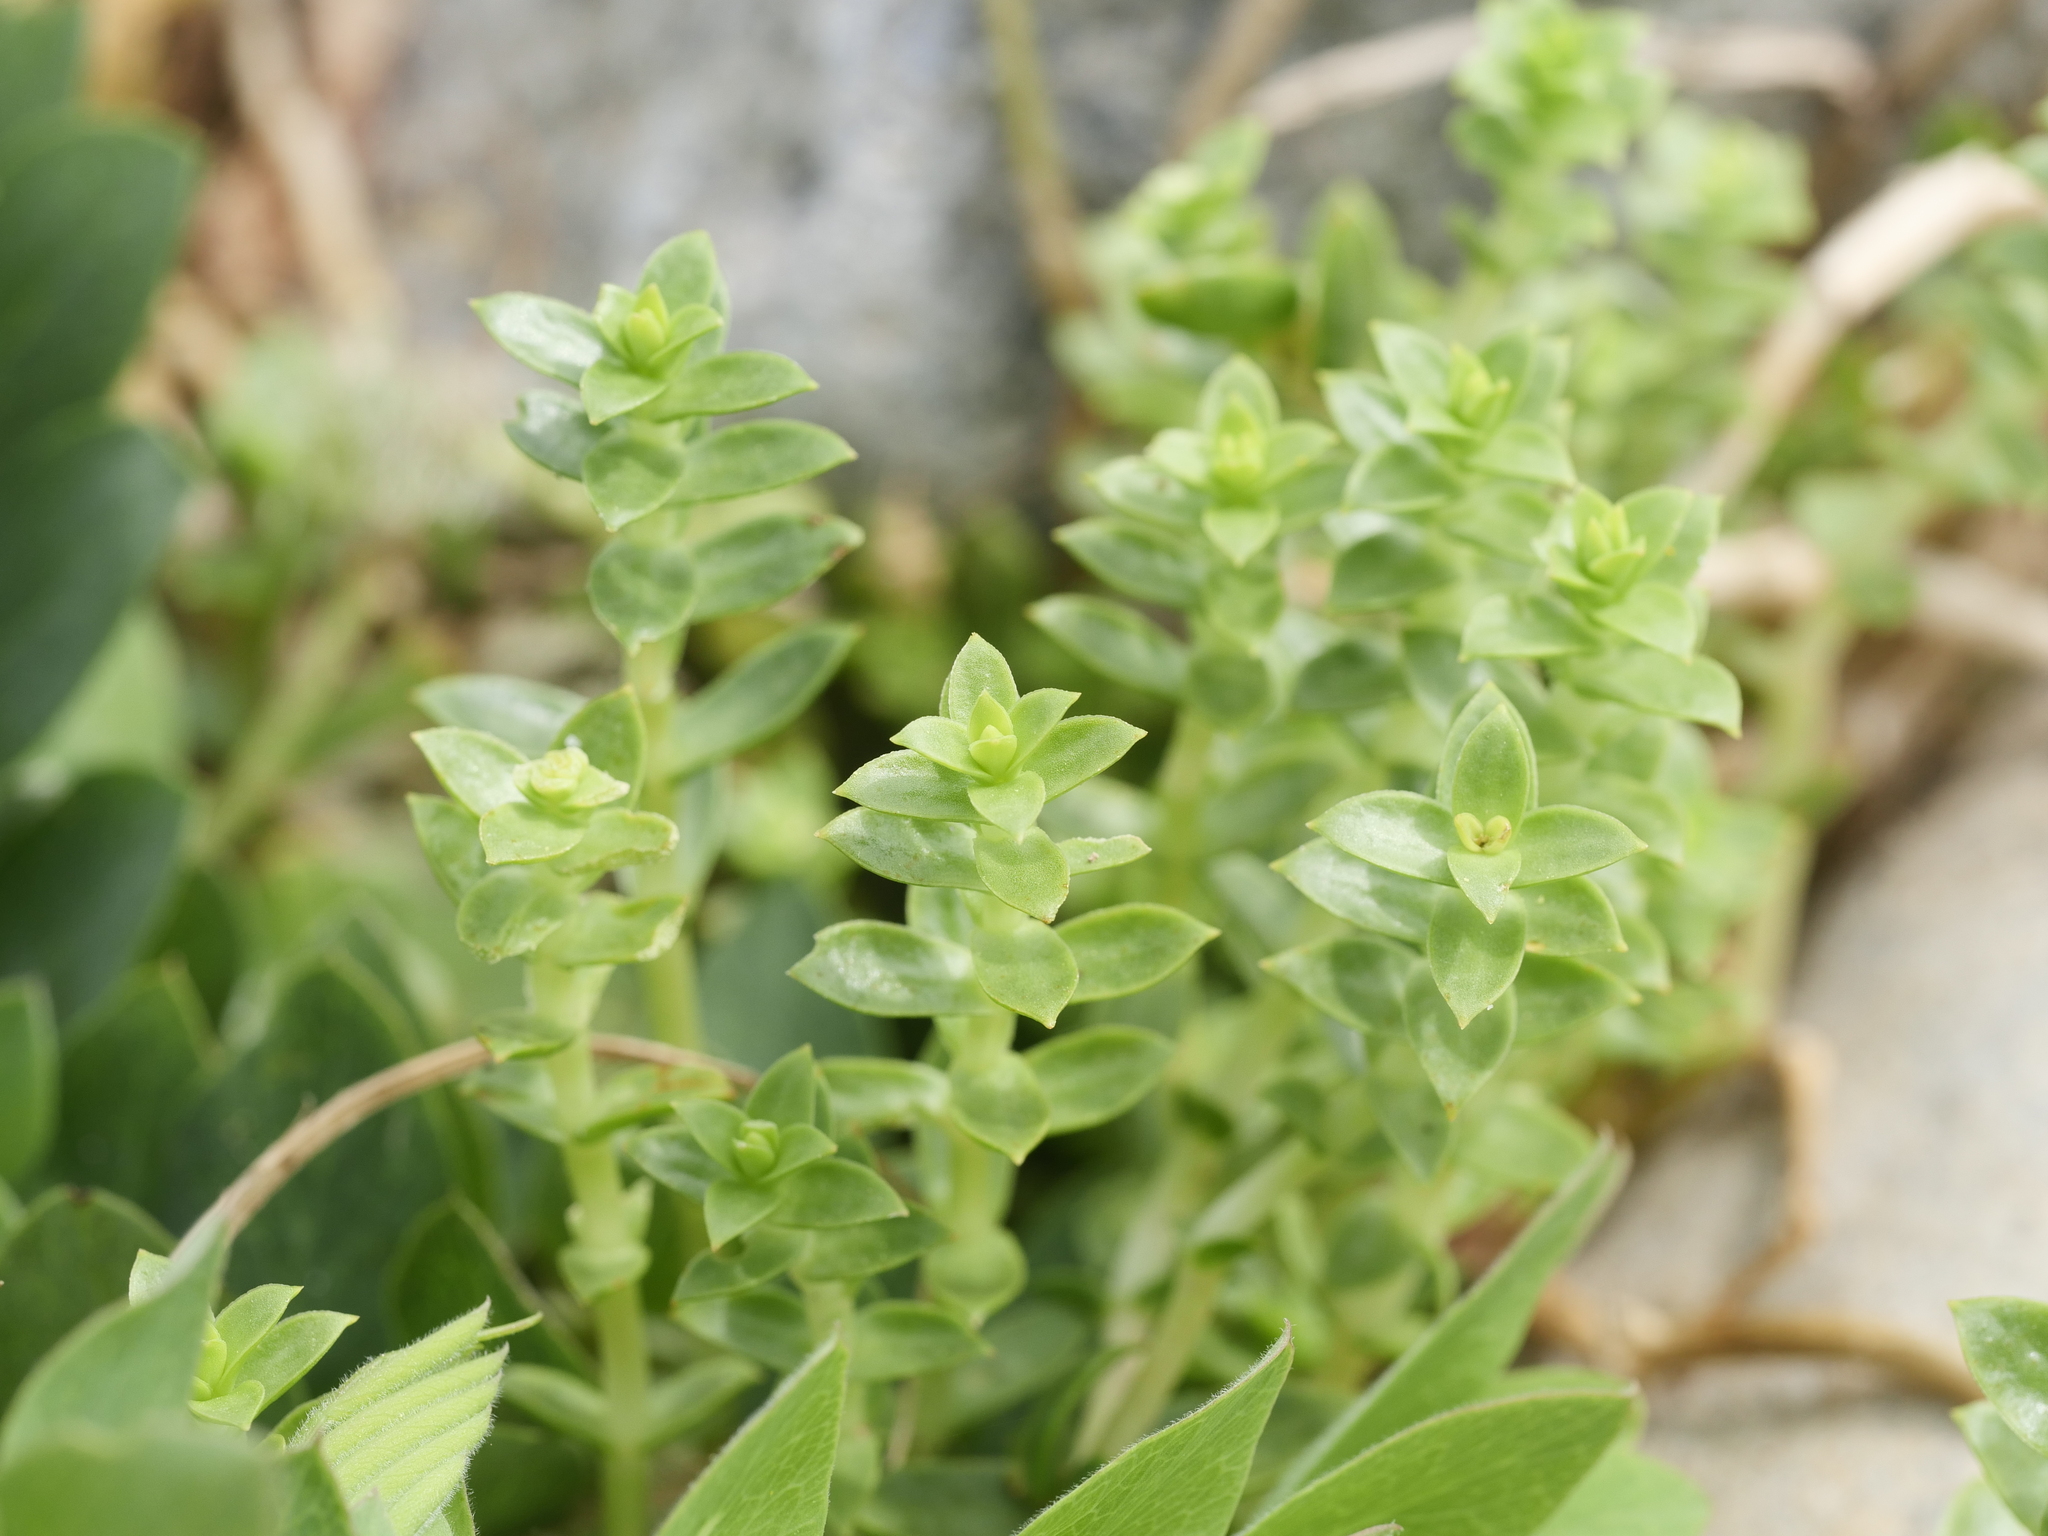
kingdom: Plantae
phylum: Tracheophyta
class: Magnoliopsida
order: Caryophyllales
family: Caryophyllaceae
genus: Honckenya
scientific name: Honckenya peploides
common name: Sea sandwort
